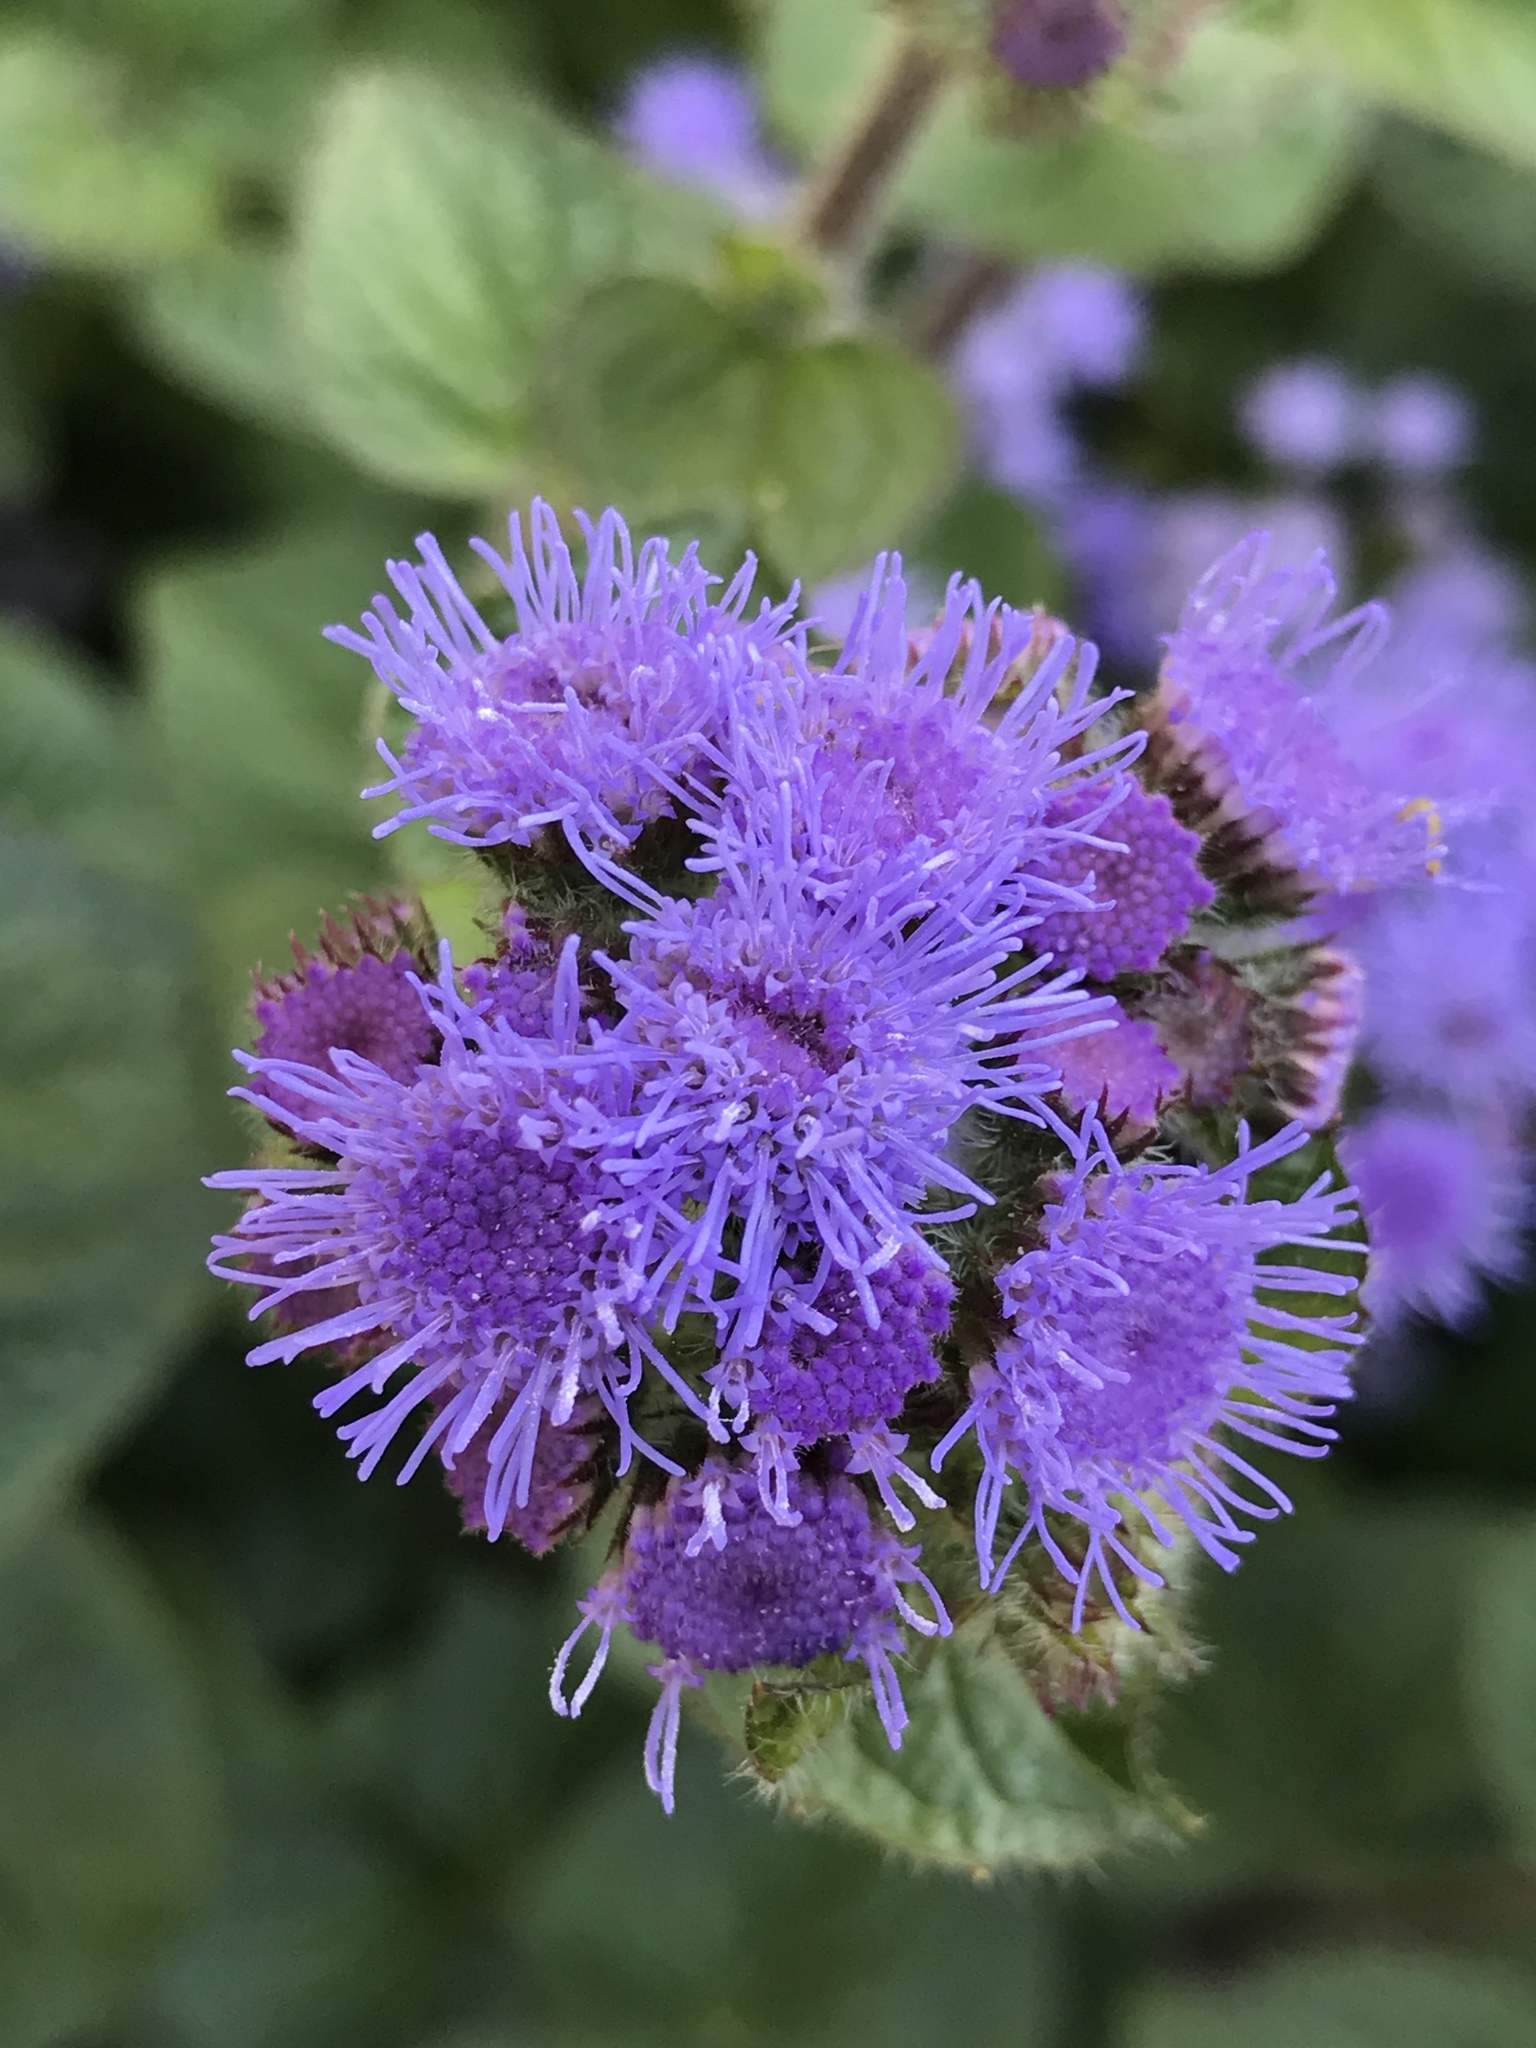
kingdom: Plantae
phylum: Tracheophyta
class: Magnoliopsida
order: Asterales
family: Asteraceae
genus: Conoclinium
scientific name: Conoclinium coelestinum
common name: Blue mistflower
